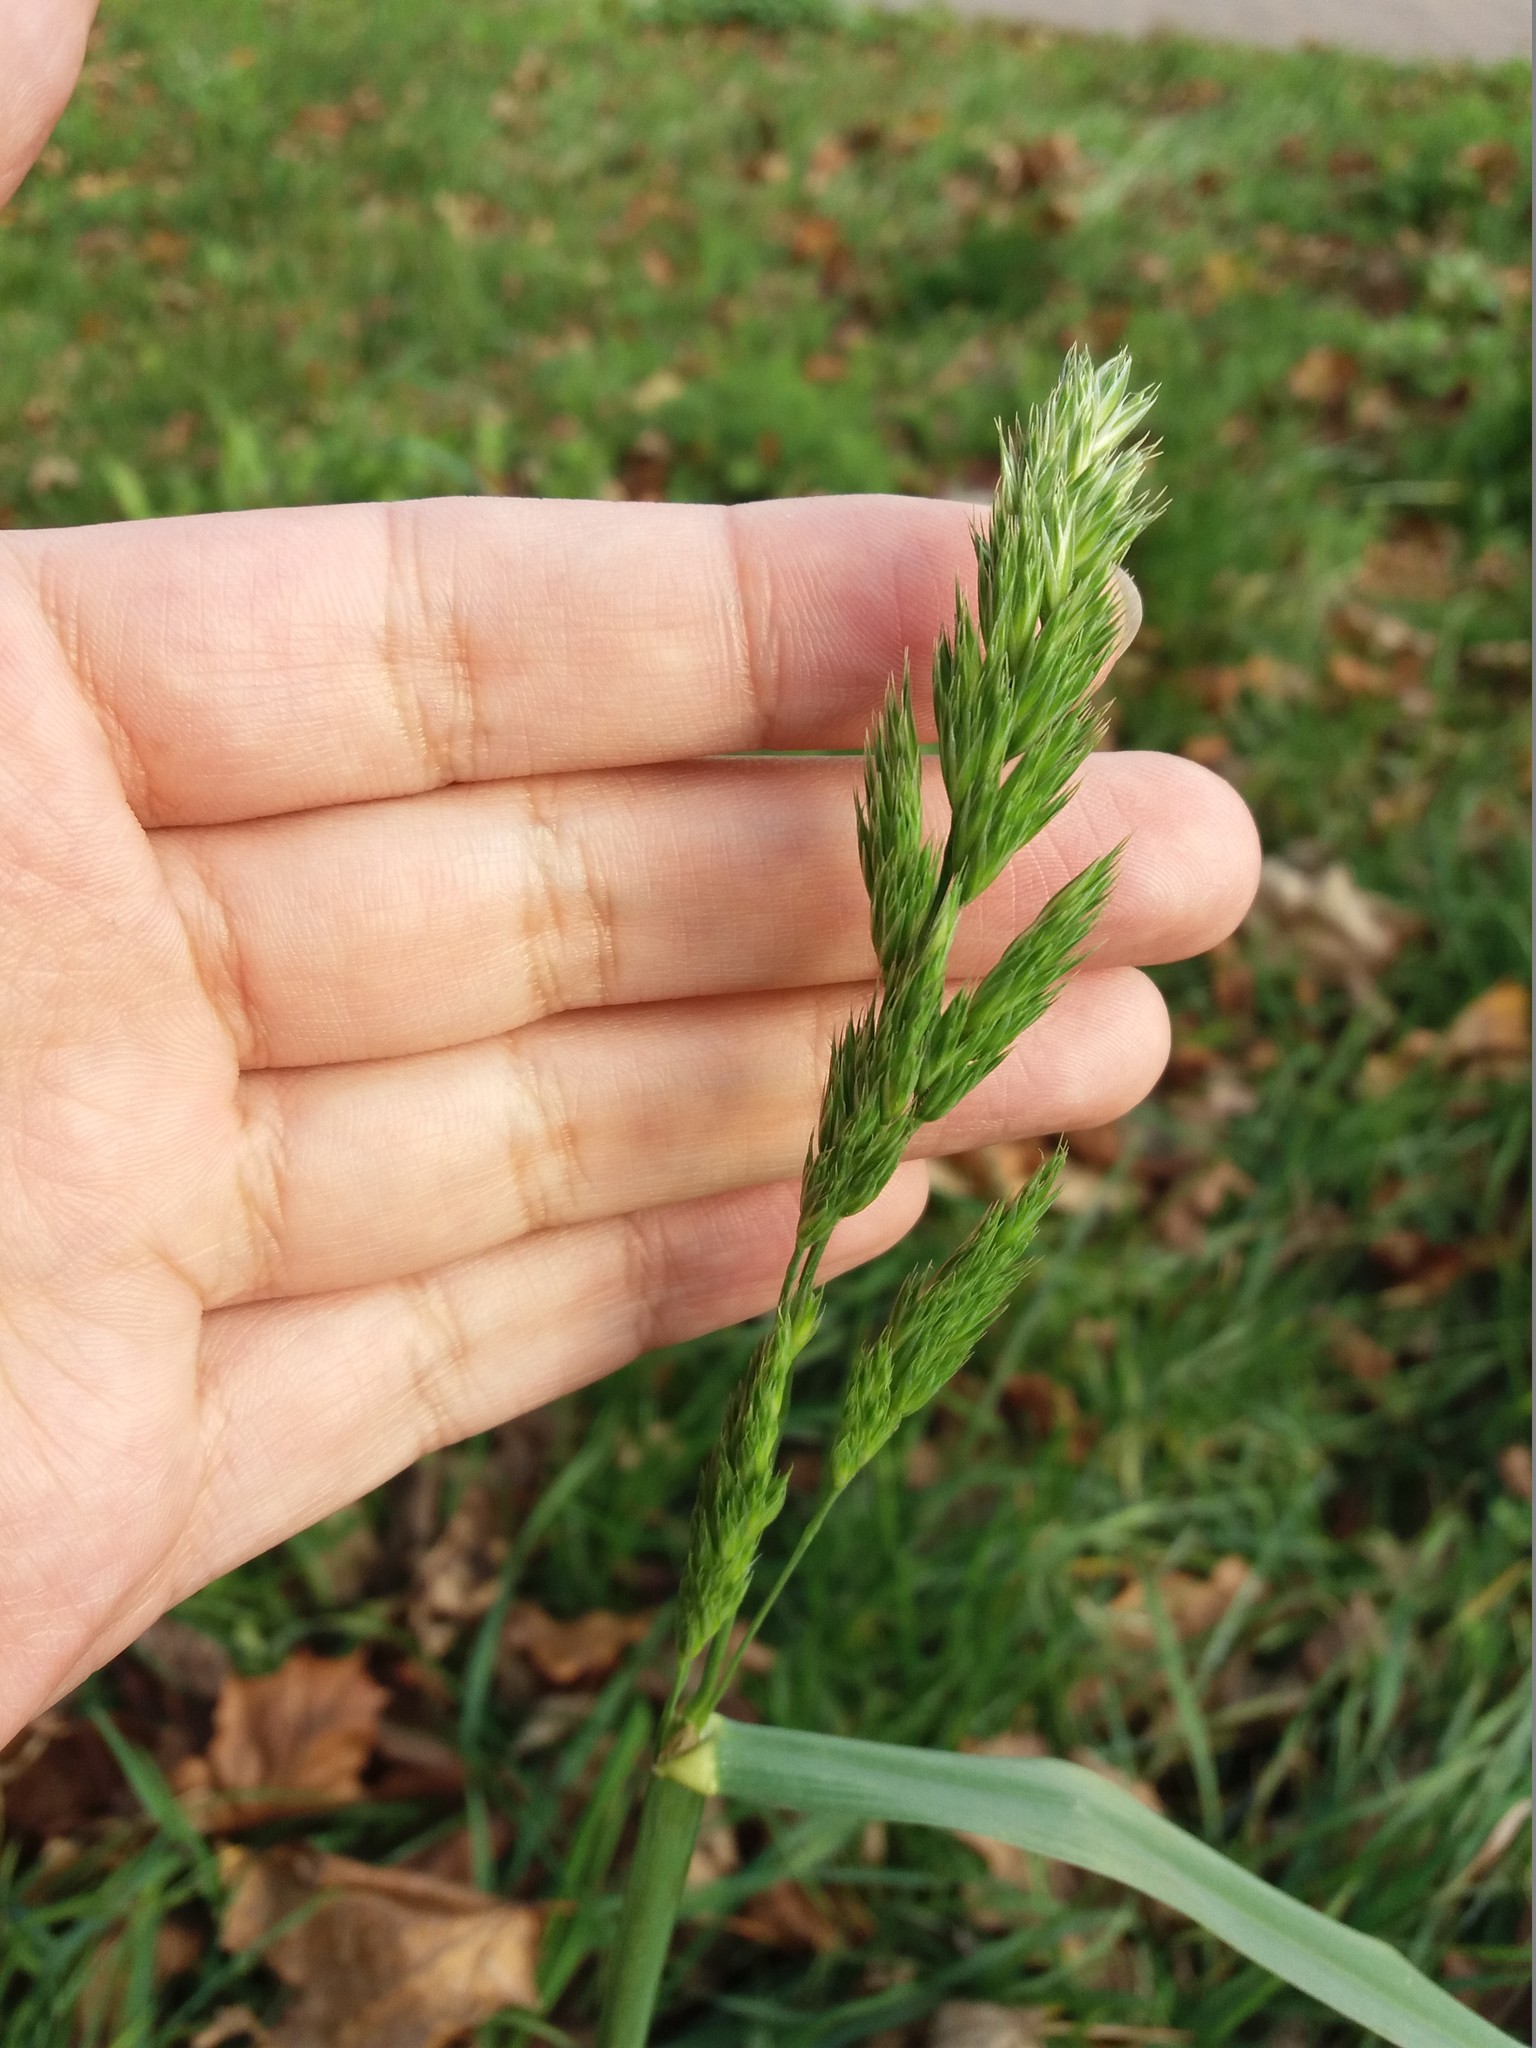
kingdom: Plantae
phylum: Tracheophyta
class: Liliopsida
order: Poales
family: Poaceae
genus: Dactylis
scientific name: Dactylis glomerata
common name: Orchardgrass
